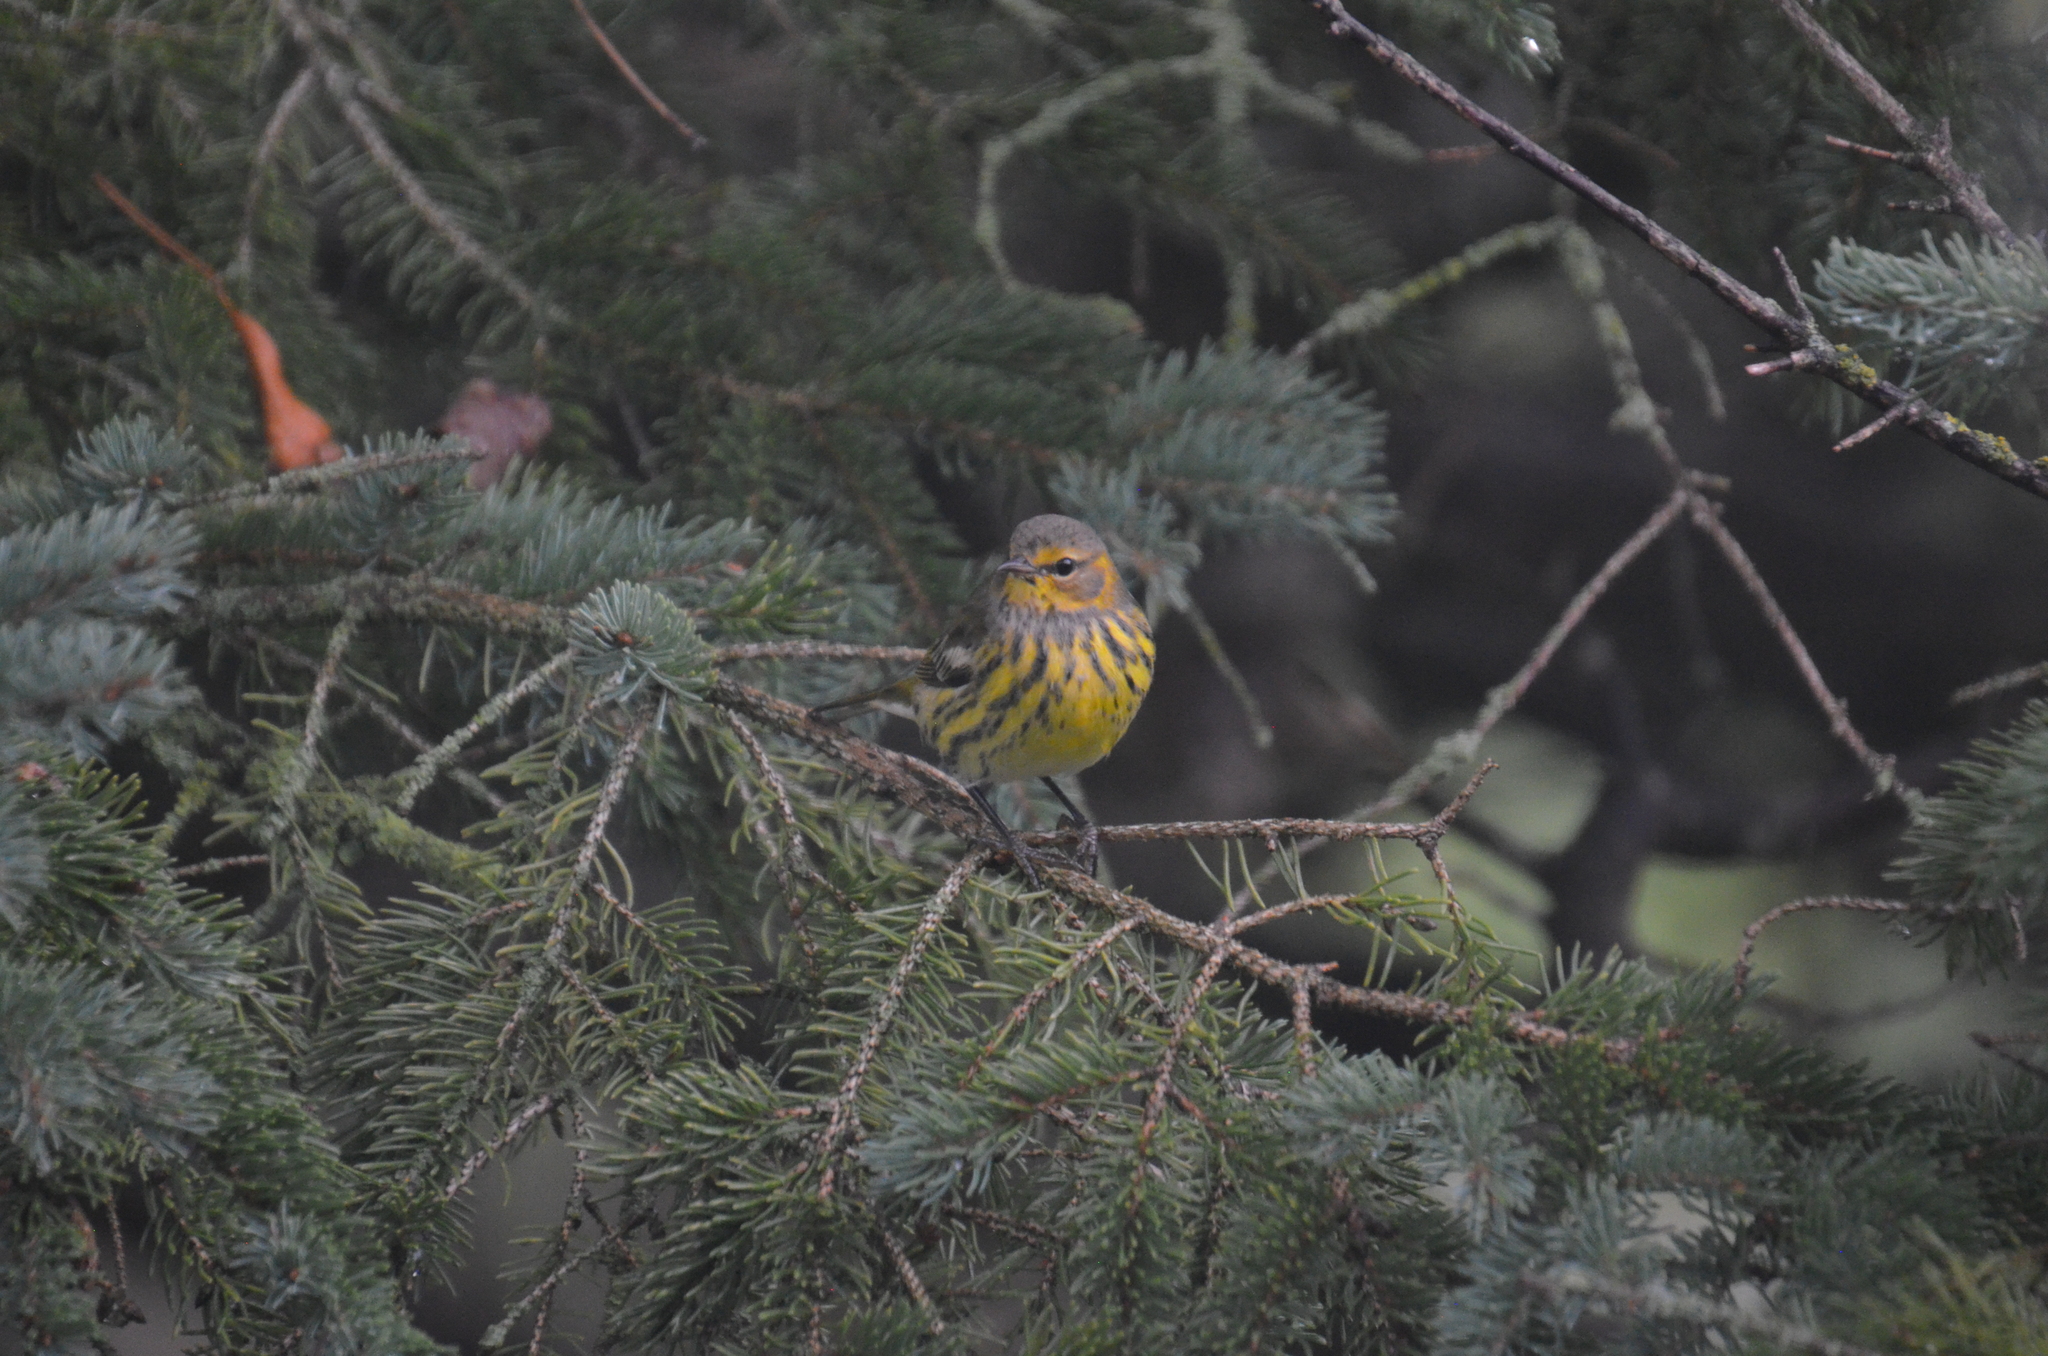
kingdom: Animalia
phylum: Chordata
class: Aves
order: Passeriformes
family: Parulidae
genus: Setophaga
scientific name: Setophaga tigrina
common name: Cape may warbler
